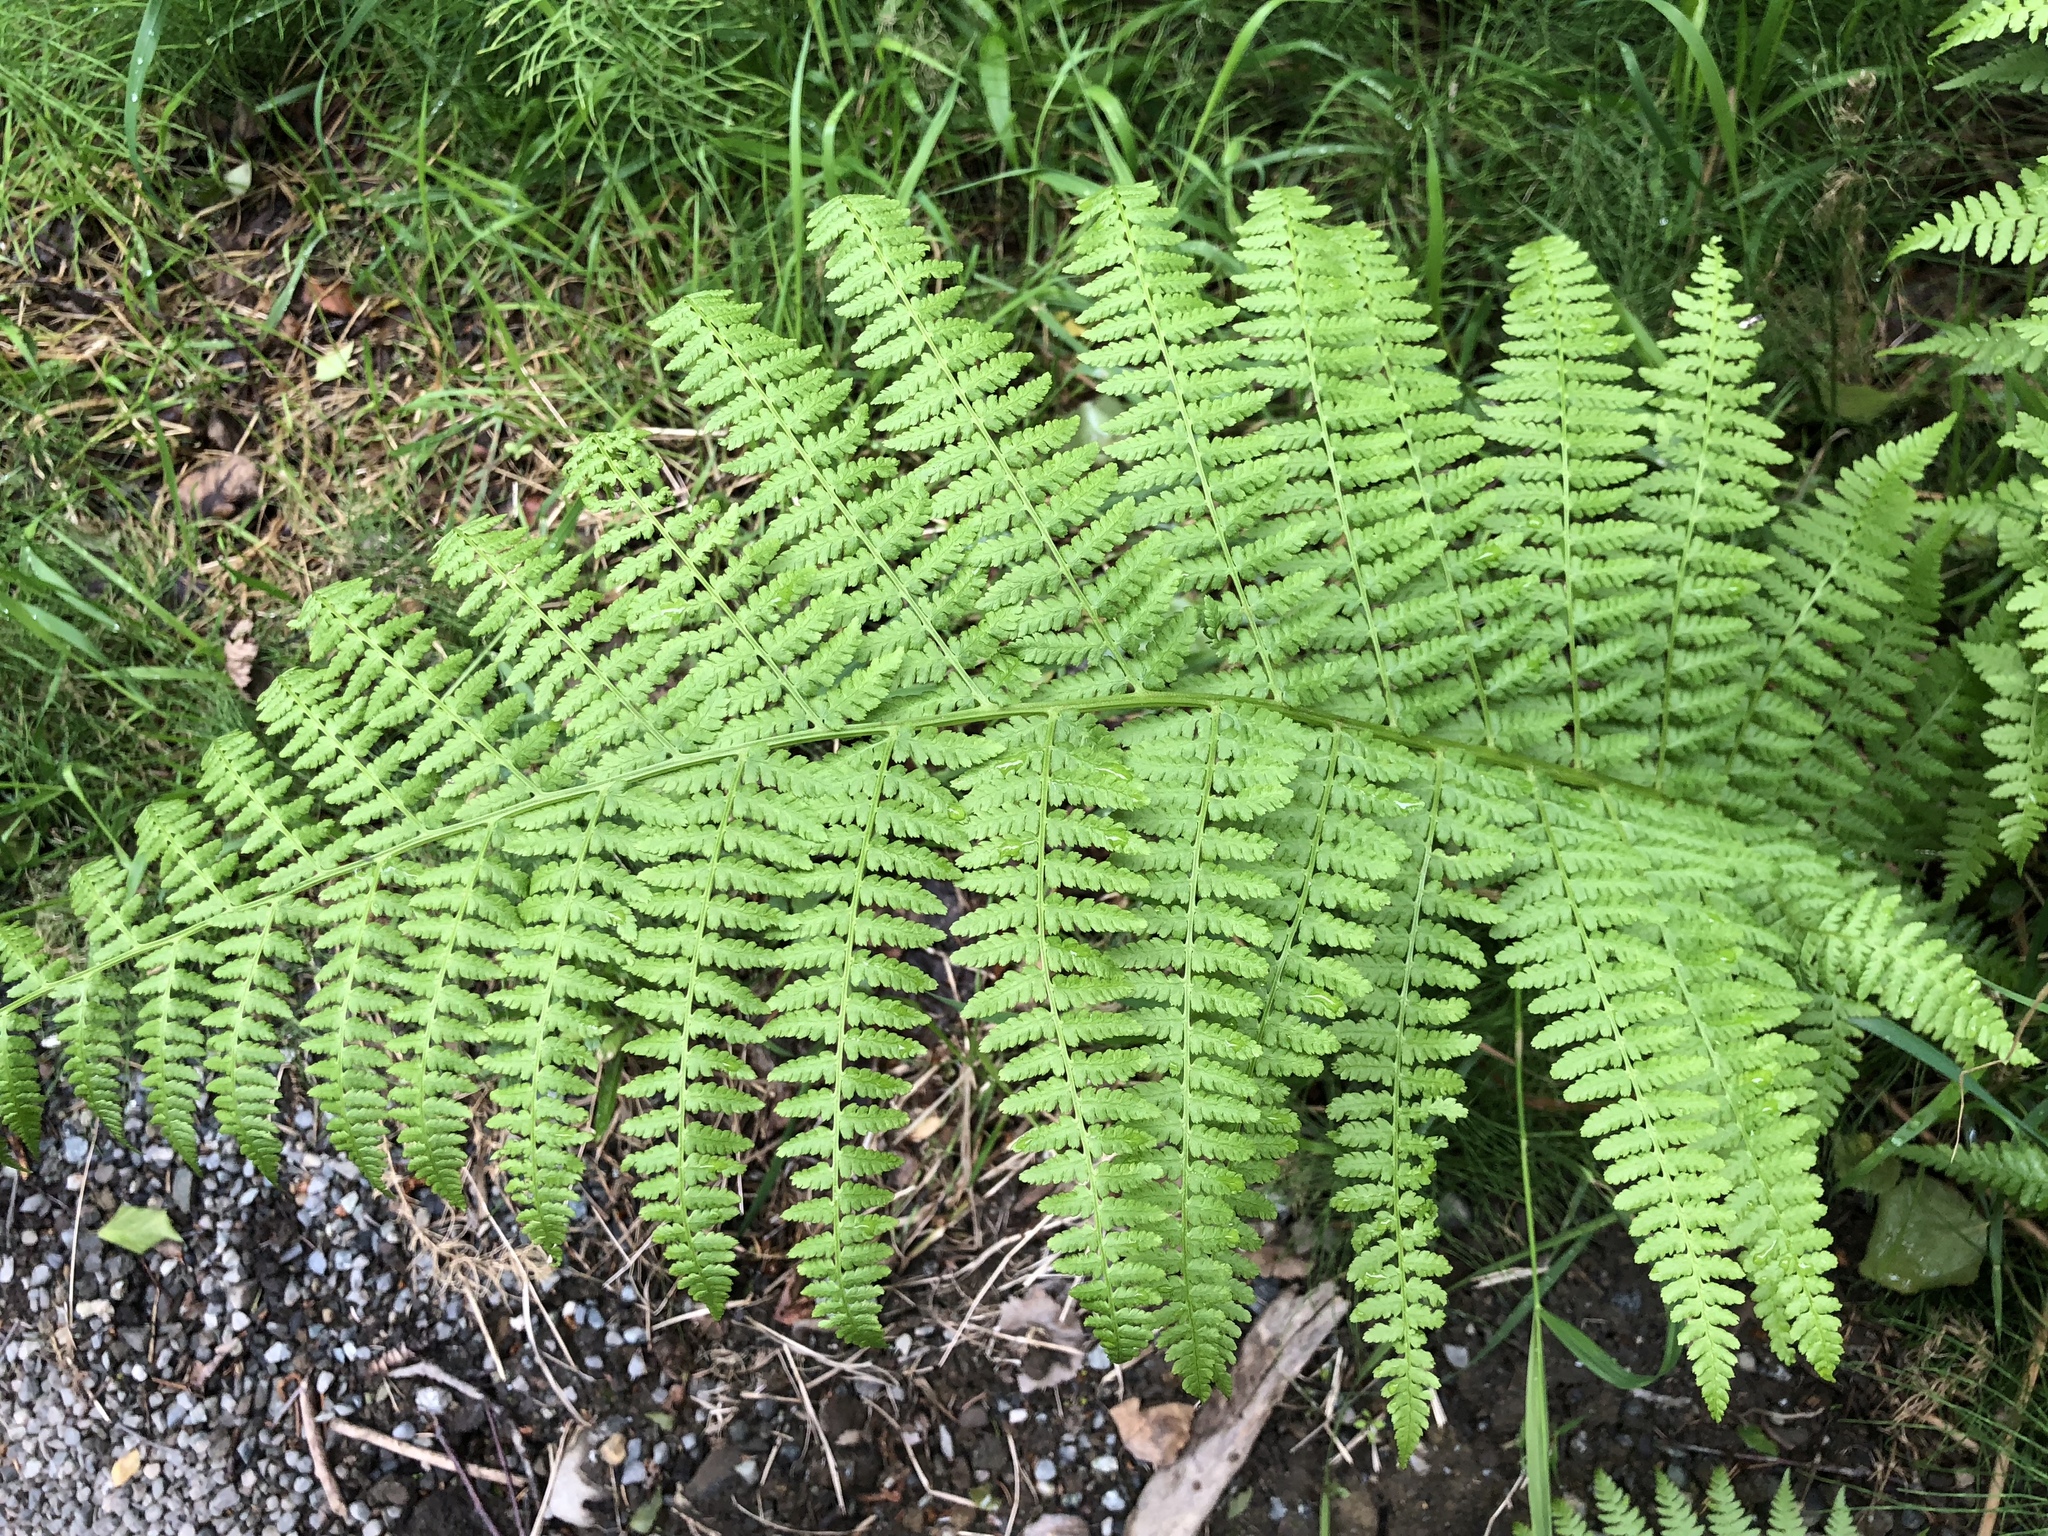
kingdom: Plantae
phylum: Tracheophyta
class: Polypodiopsida
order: Polypodiales
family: Athyriaceae
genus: Athyrium
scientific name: Athyrium filix-femina
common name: Lady fern
